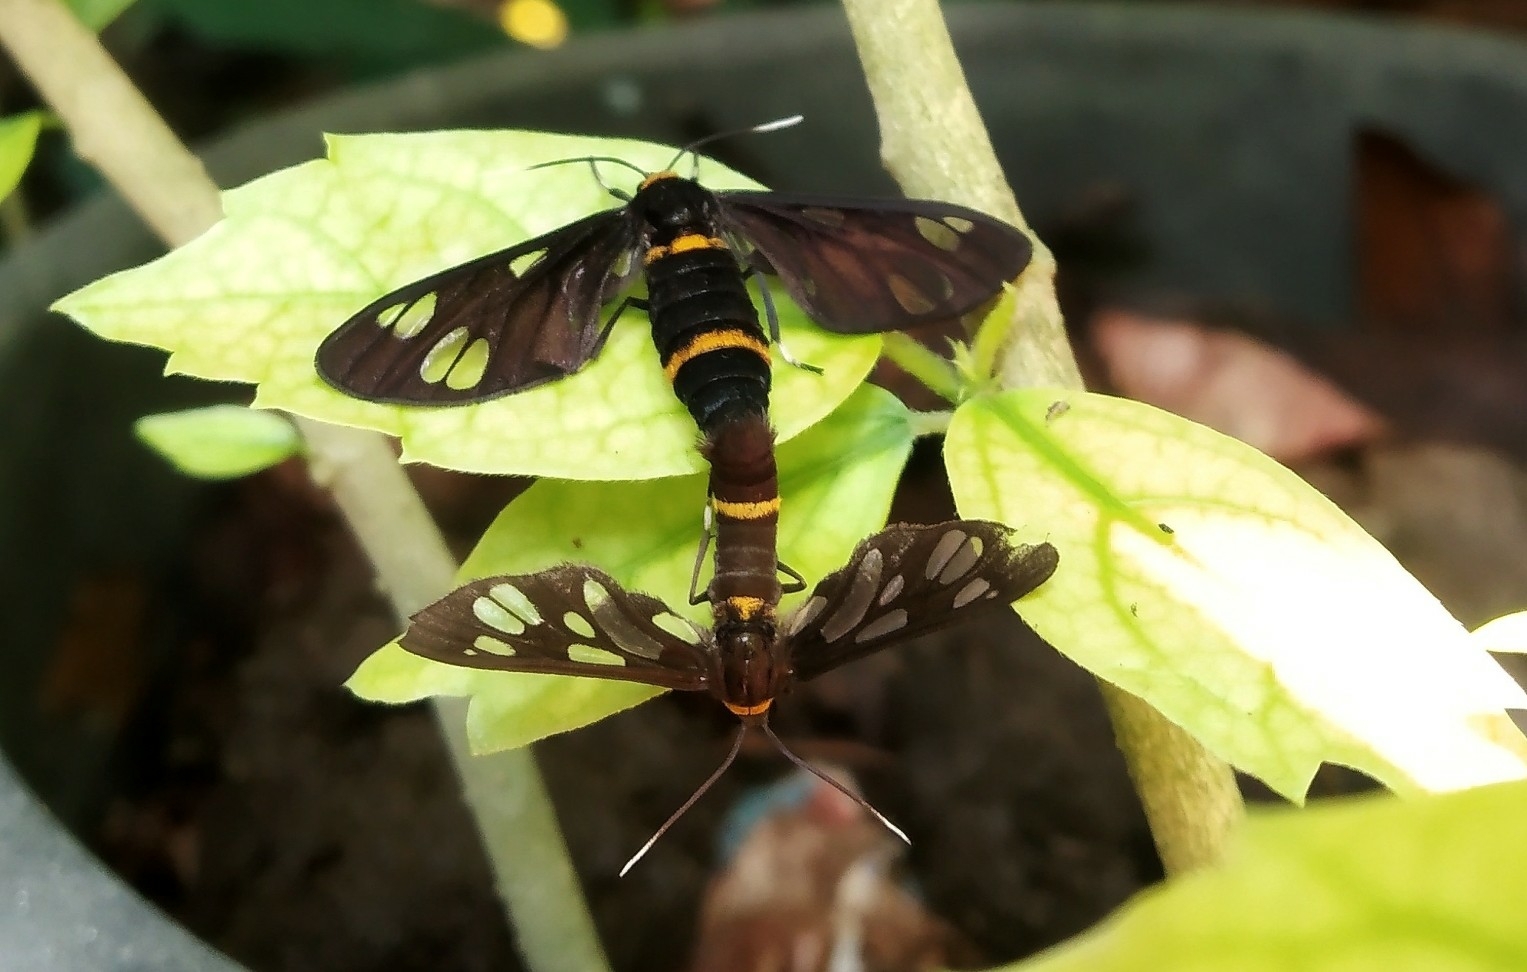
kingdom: Animalia
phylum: Arthropoda
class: Insecta
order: Lepidoptera
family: Erebidae
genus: Syntomoides
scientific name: Syntomoides imaon
